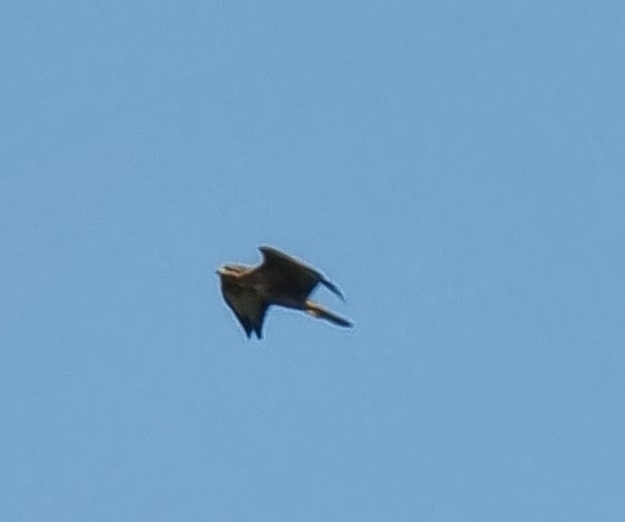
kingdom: Animalia
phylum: Chordata
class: Aves
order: Accipitriformes
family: Accipitridae
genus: Buteo
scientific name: Buteo buteo
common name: Common buzzard
